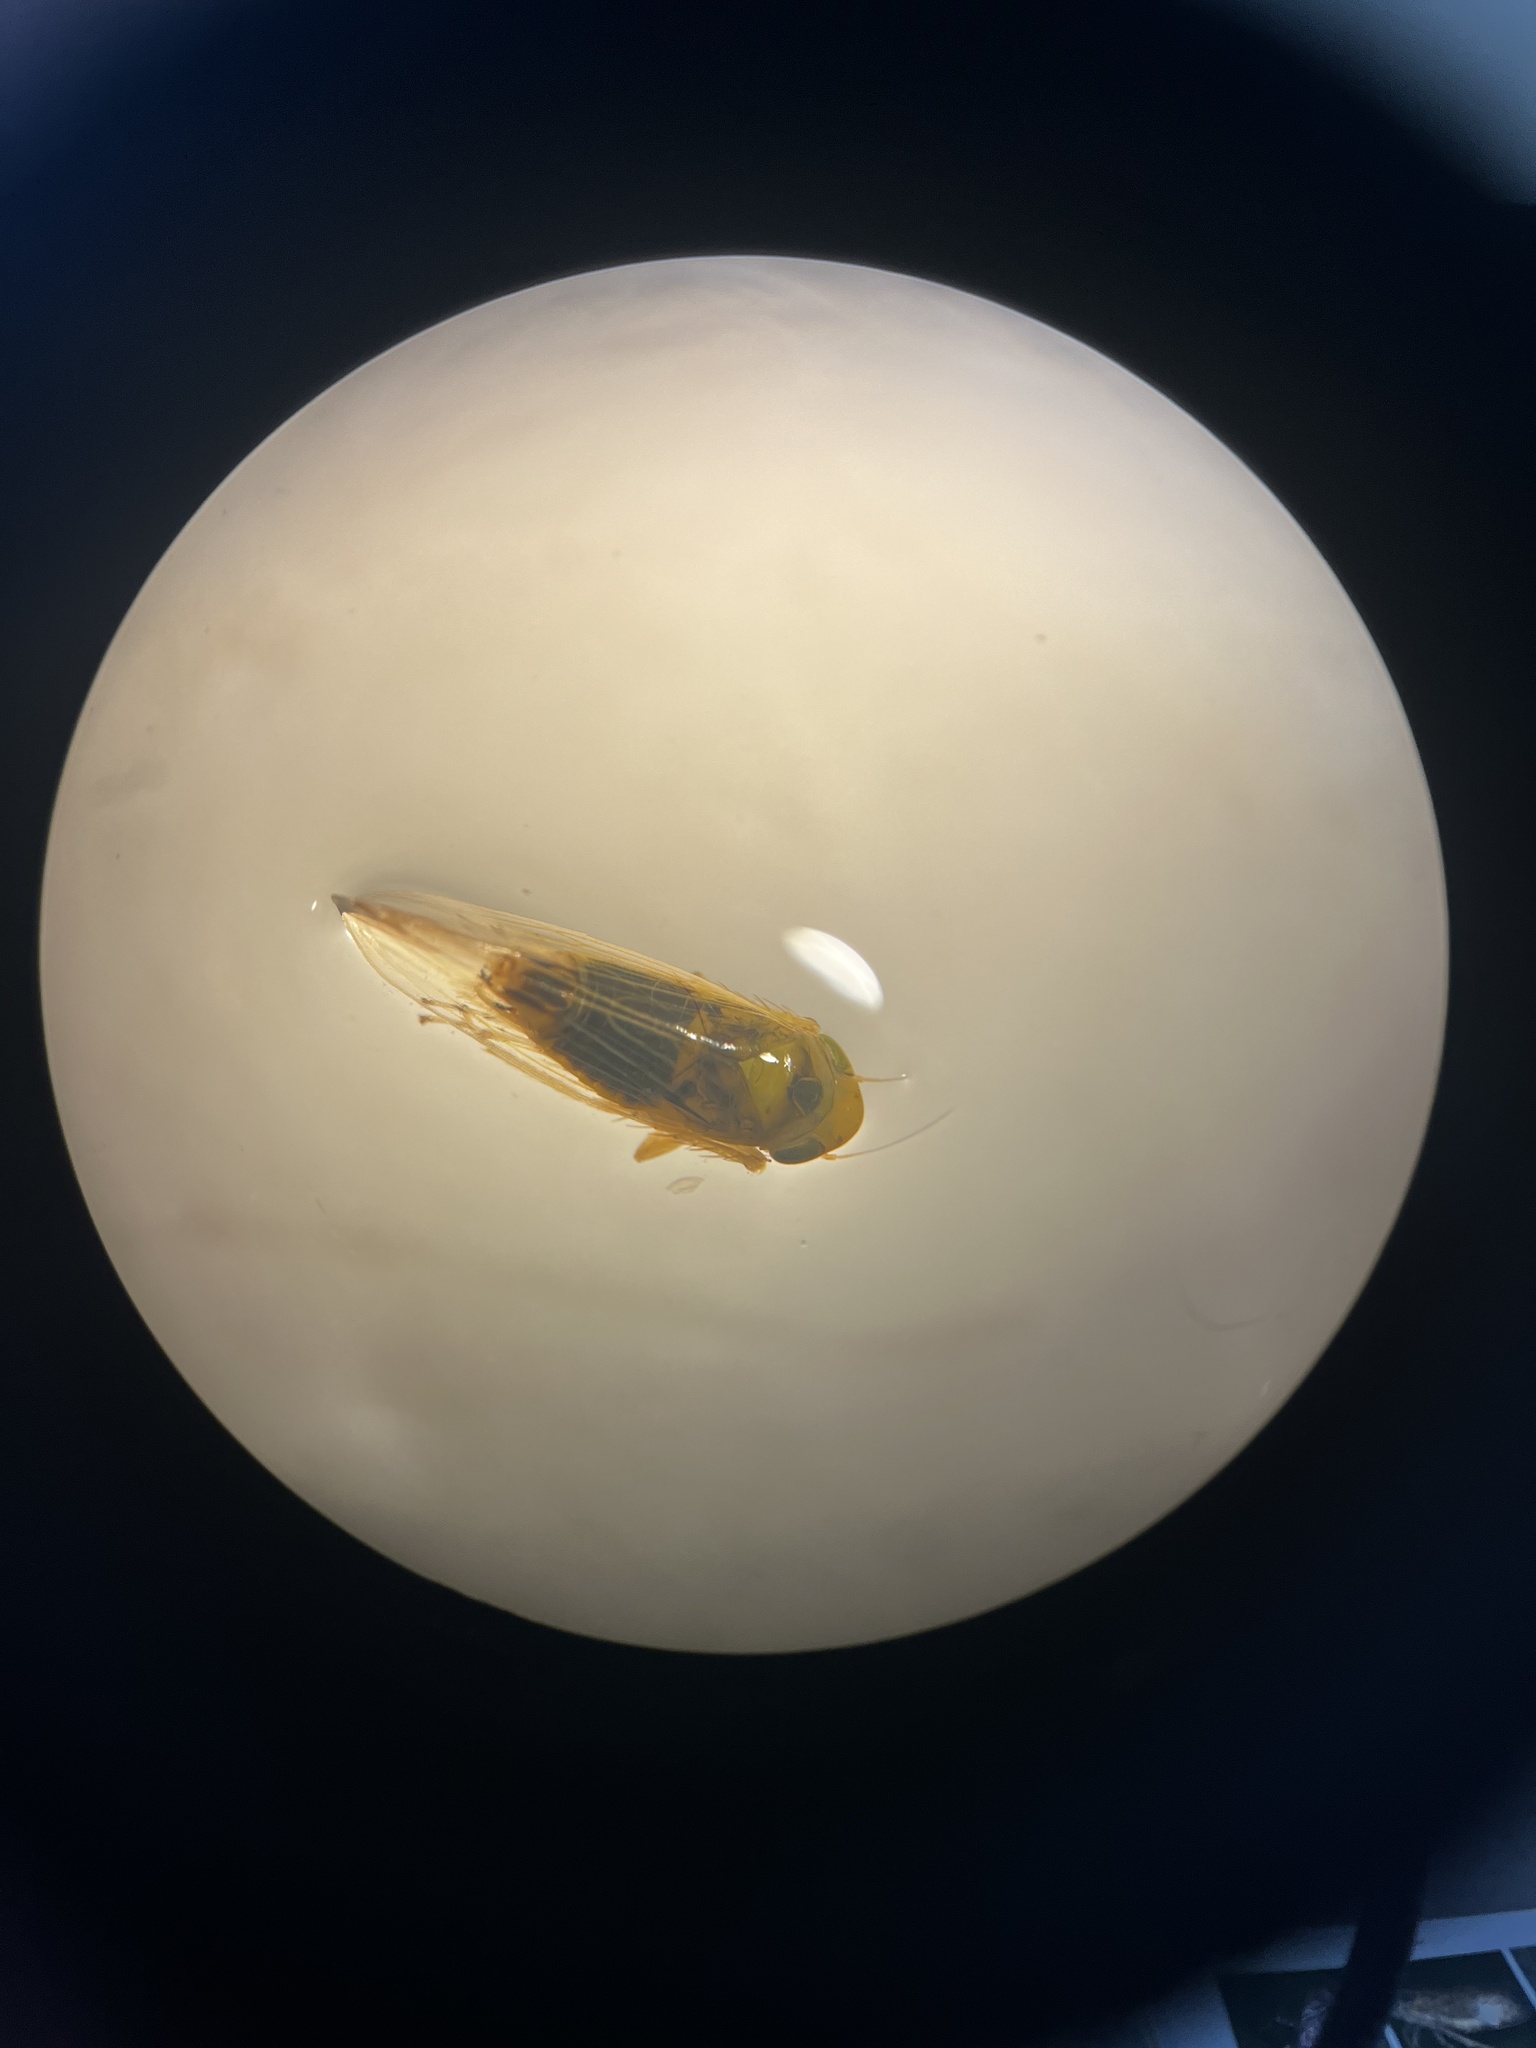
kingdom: Animalia
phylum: Arthropoda
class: Insecta
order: Hemiptera
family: Cicadellidae
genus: Elymana
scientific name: Elymana kozhevnikovi
